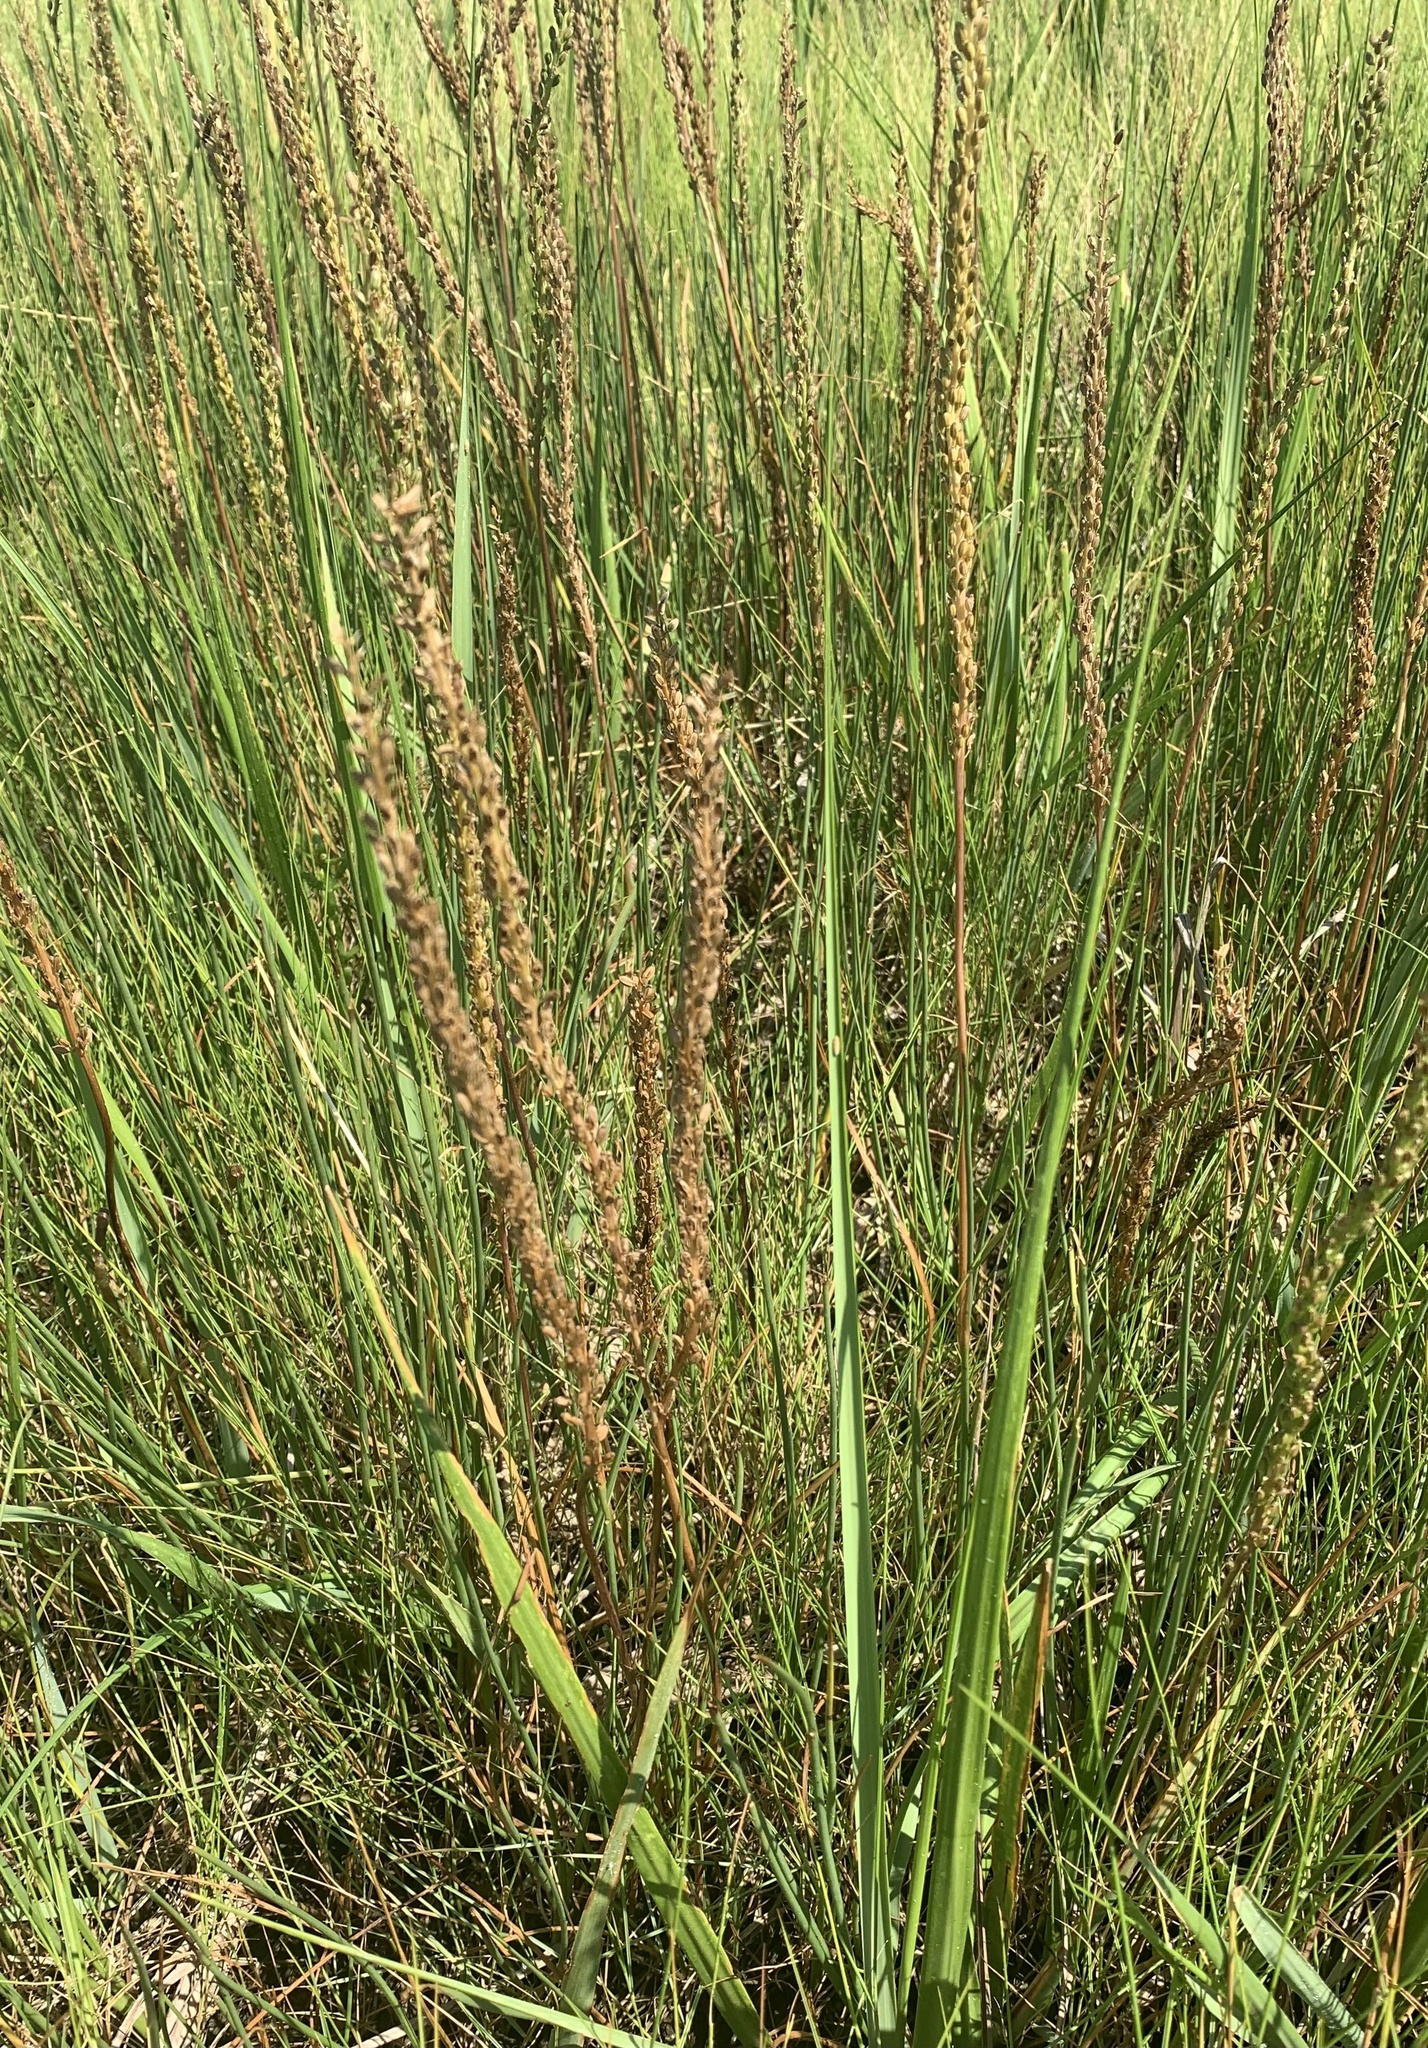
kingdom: Plantae
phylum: Tracheophyta
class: Liliopsida
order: Alismatales
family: Juncaginaceae
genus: Triglochin
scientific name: Triglochin maritima
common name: Sea arrowgrass
